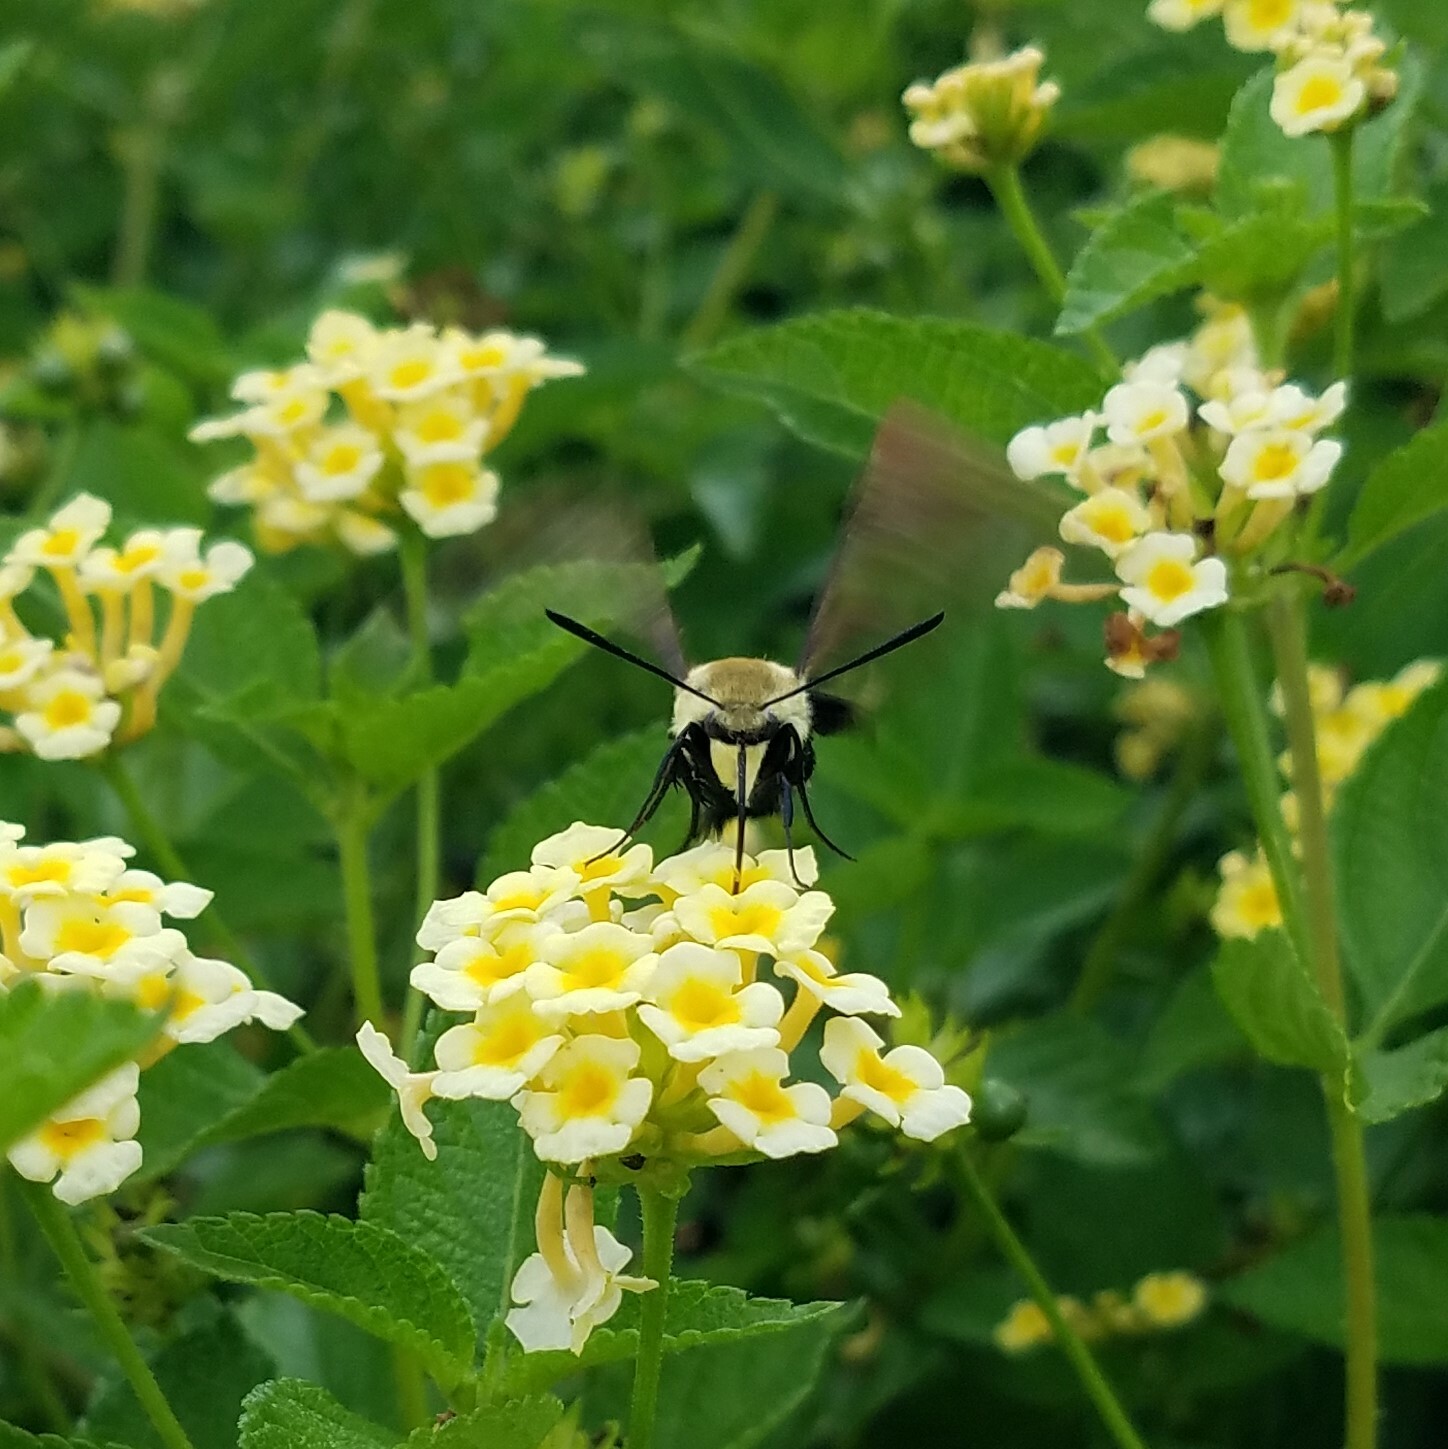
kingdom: Animalia
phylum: Arthropoda
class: Insecta
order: Lepidoptera
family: Sphingidae
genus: Hemaris
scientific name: Hemaris diffinis
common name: Bumblebee moth
